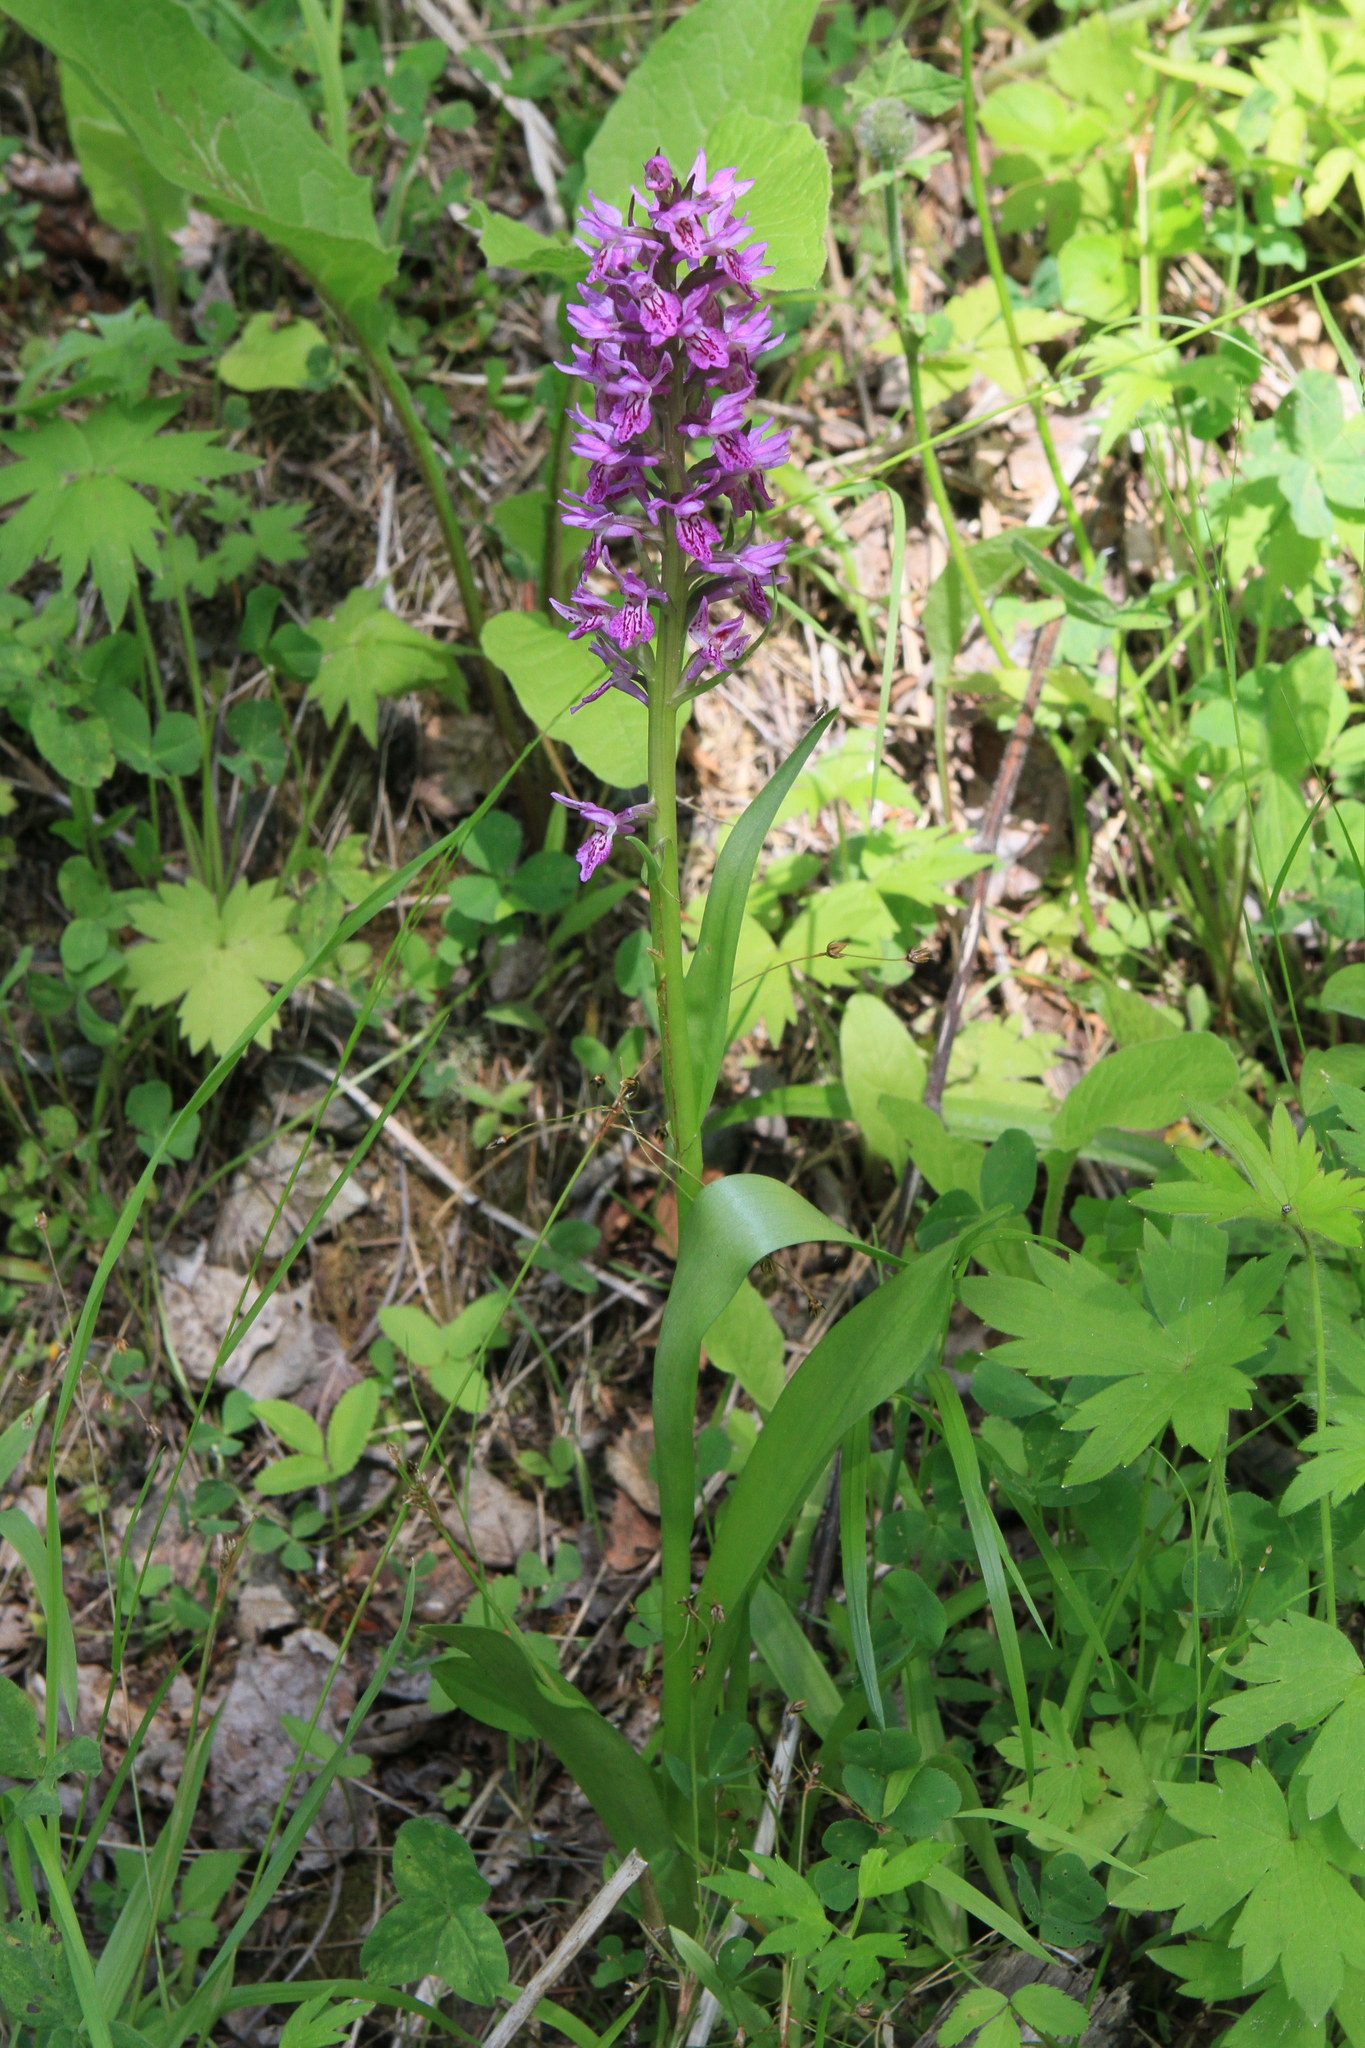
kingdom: Plantae
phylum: Tracheophyta
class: Liliopsida
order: Asparagales
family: Orchidaceae
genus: Dactylorhiza
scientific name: Dactylorhiza sibirica
